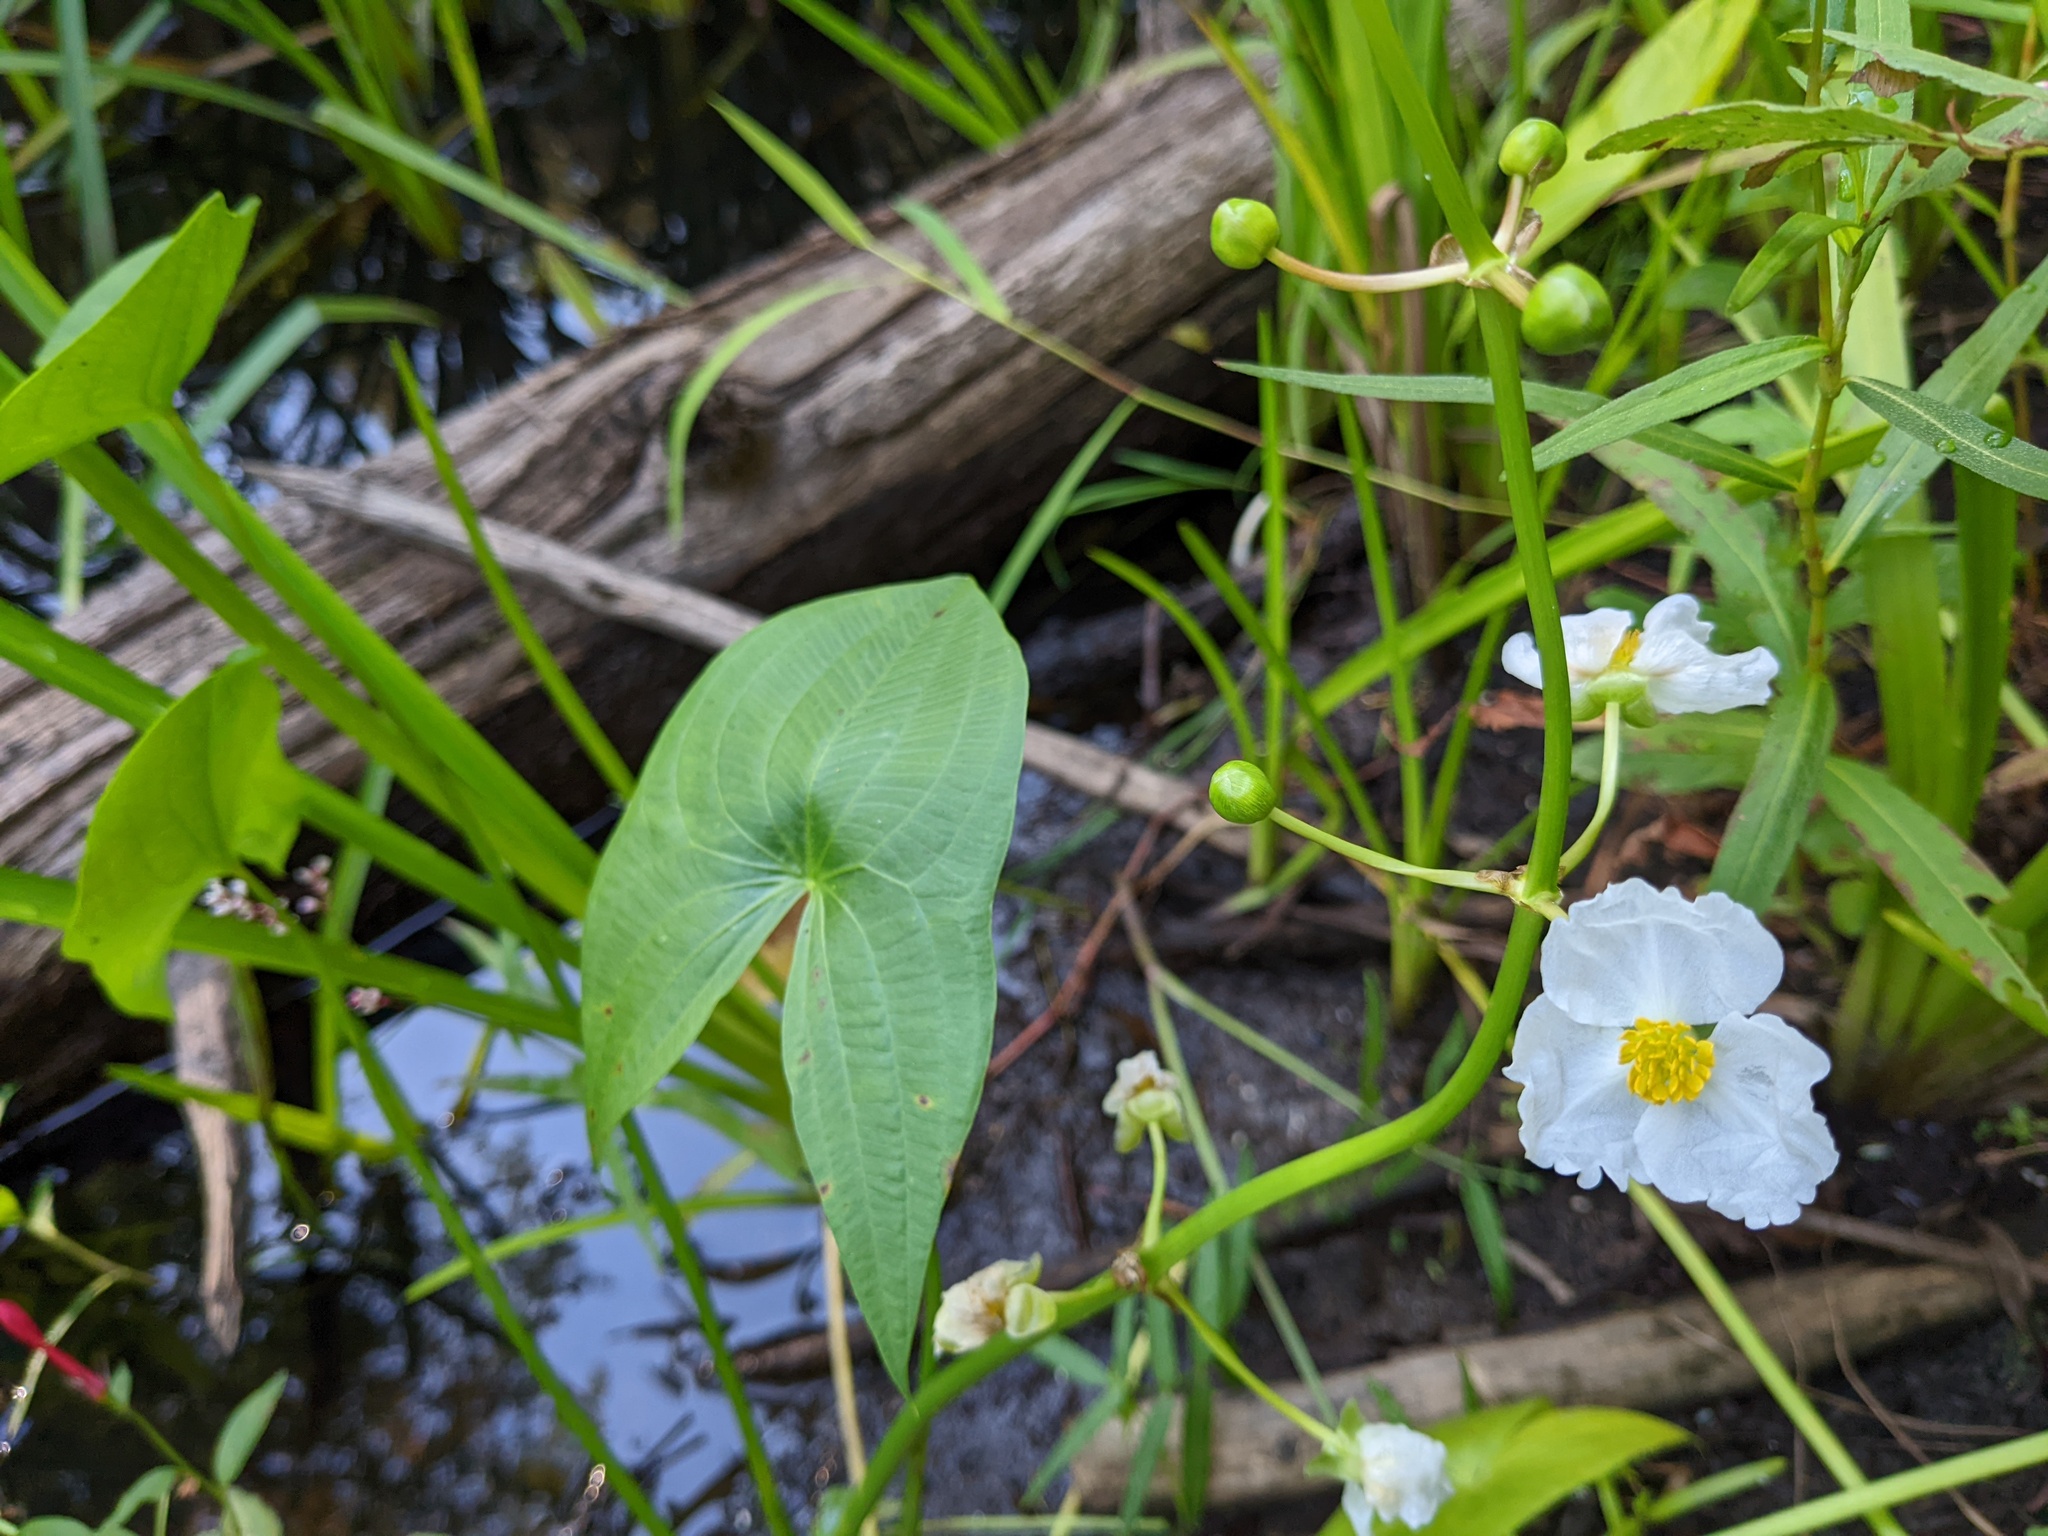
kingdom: Plantae
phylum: Tracheophyta
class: Liliopsida
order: Alismatales
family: Alismataceae
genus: Sagittaria
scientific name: Sagittaria latifolia
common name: Duck-potato
